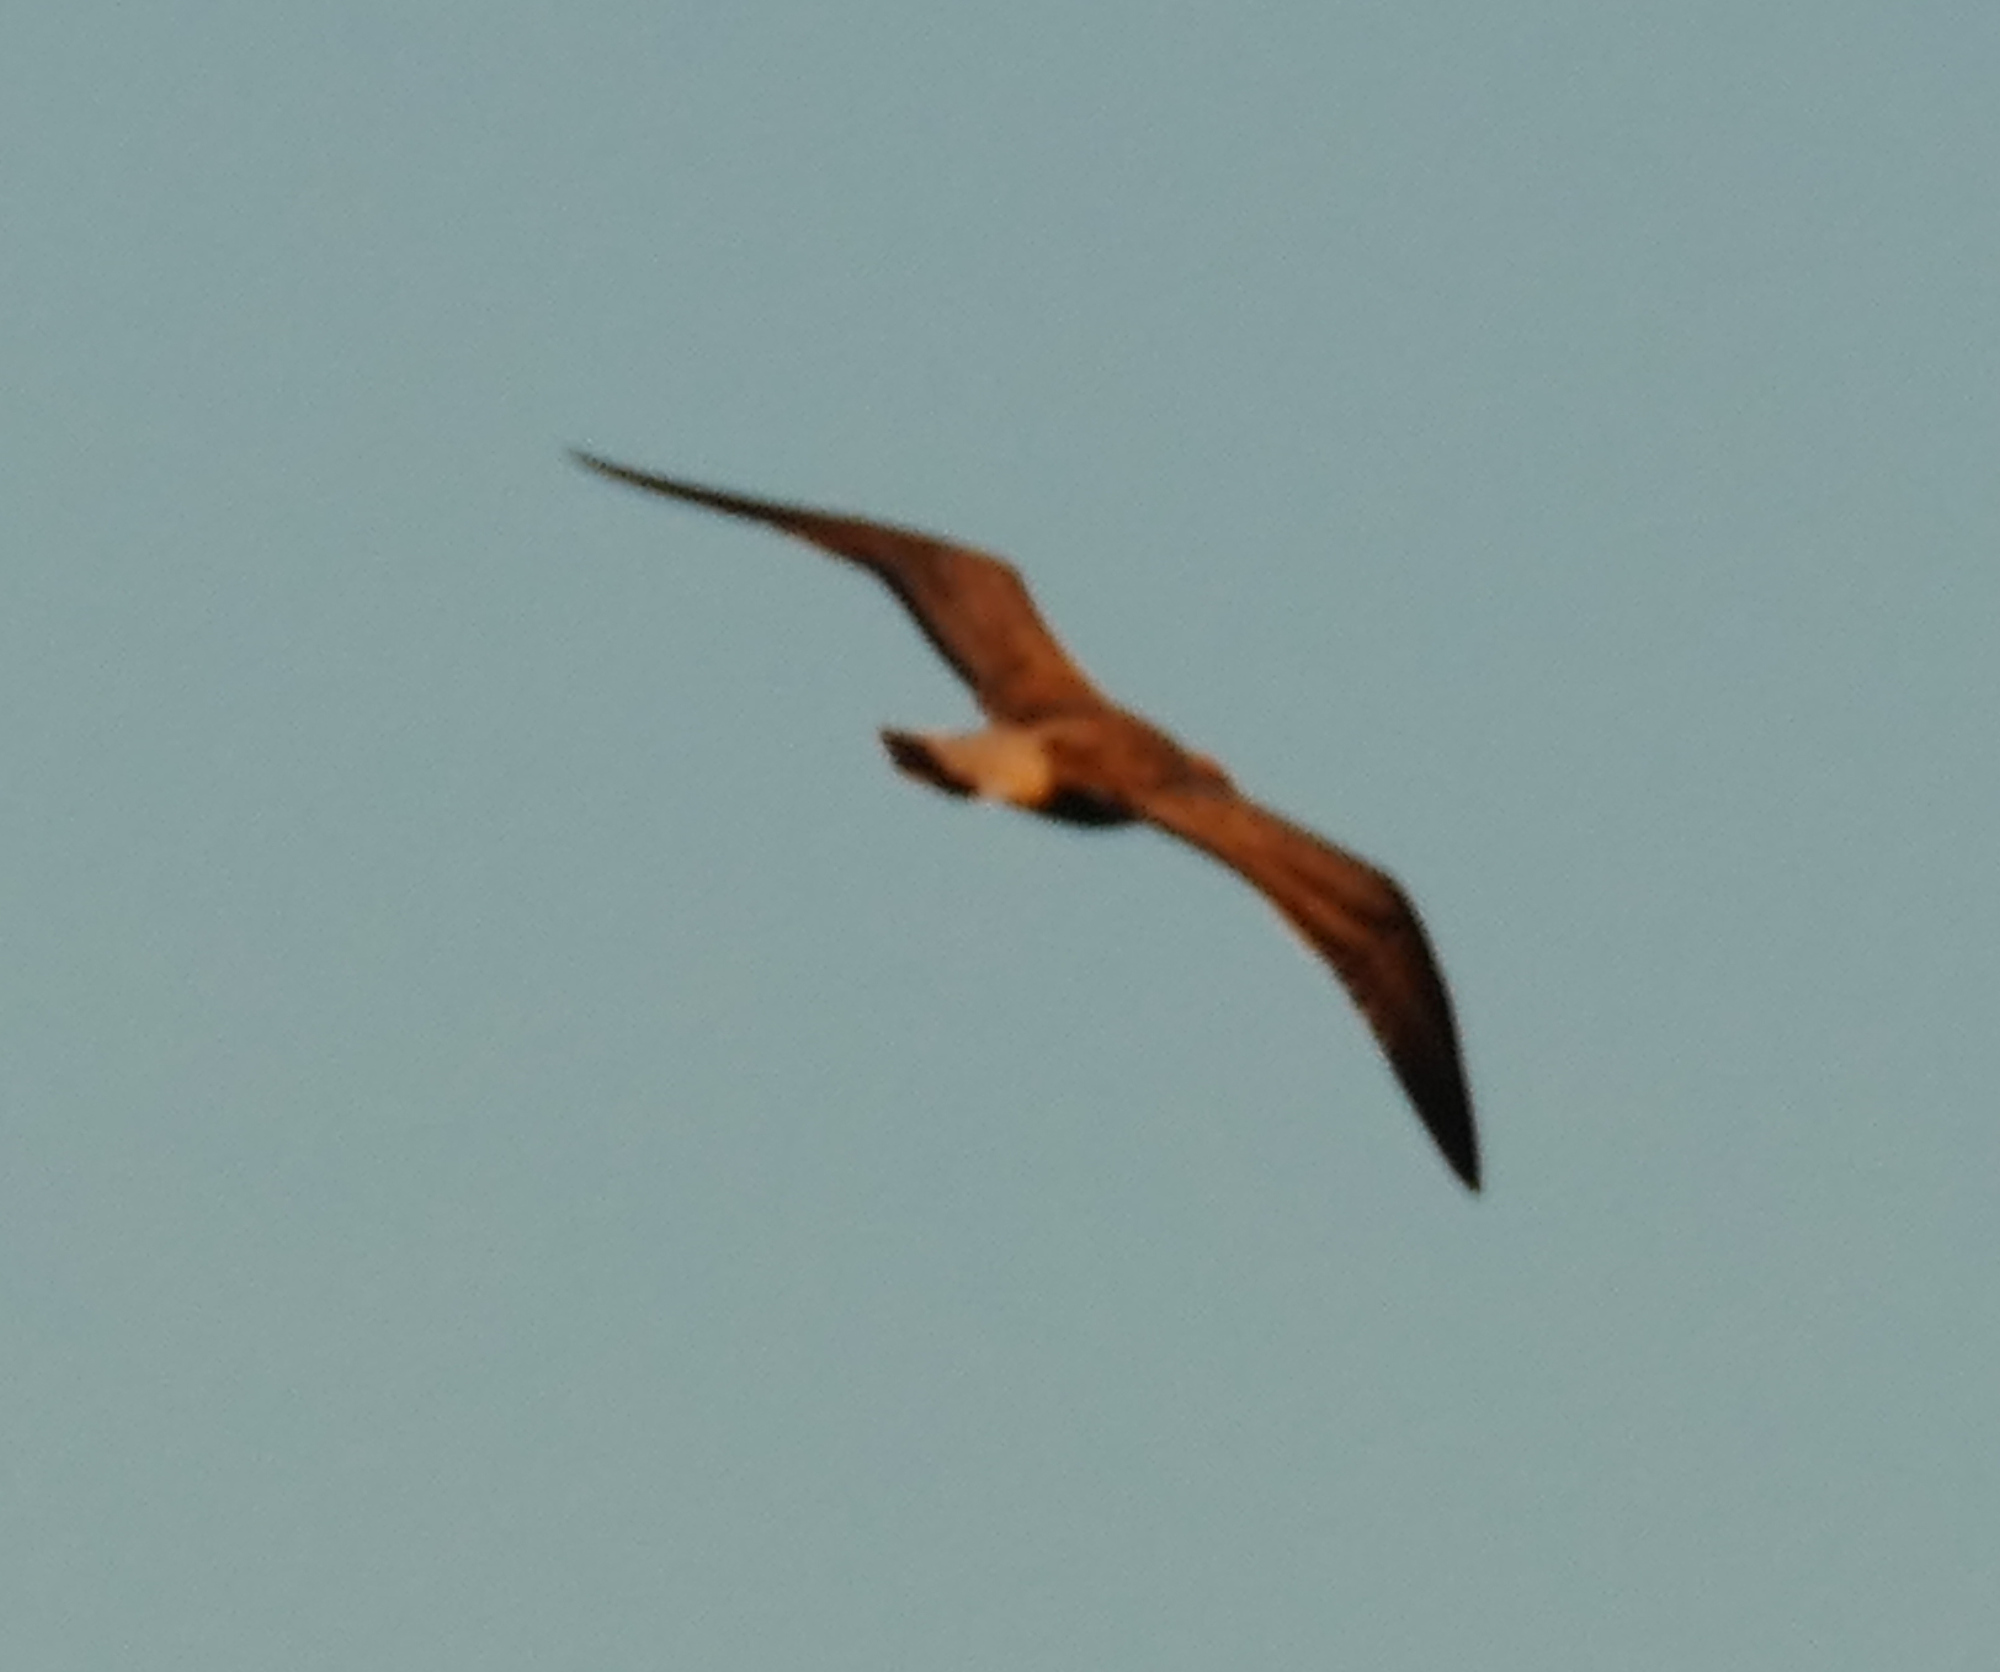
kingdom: Animalia
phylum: Chordata
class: Aves
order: Charadriiformes
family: Laridae
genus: Larus
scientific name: Larus fuscus
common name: Lesser black-backed gull
